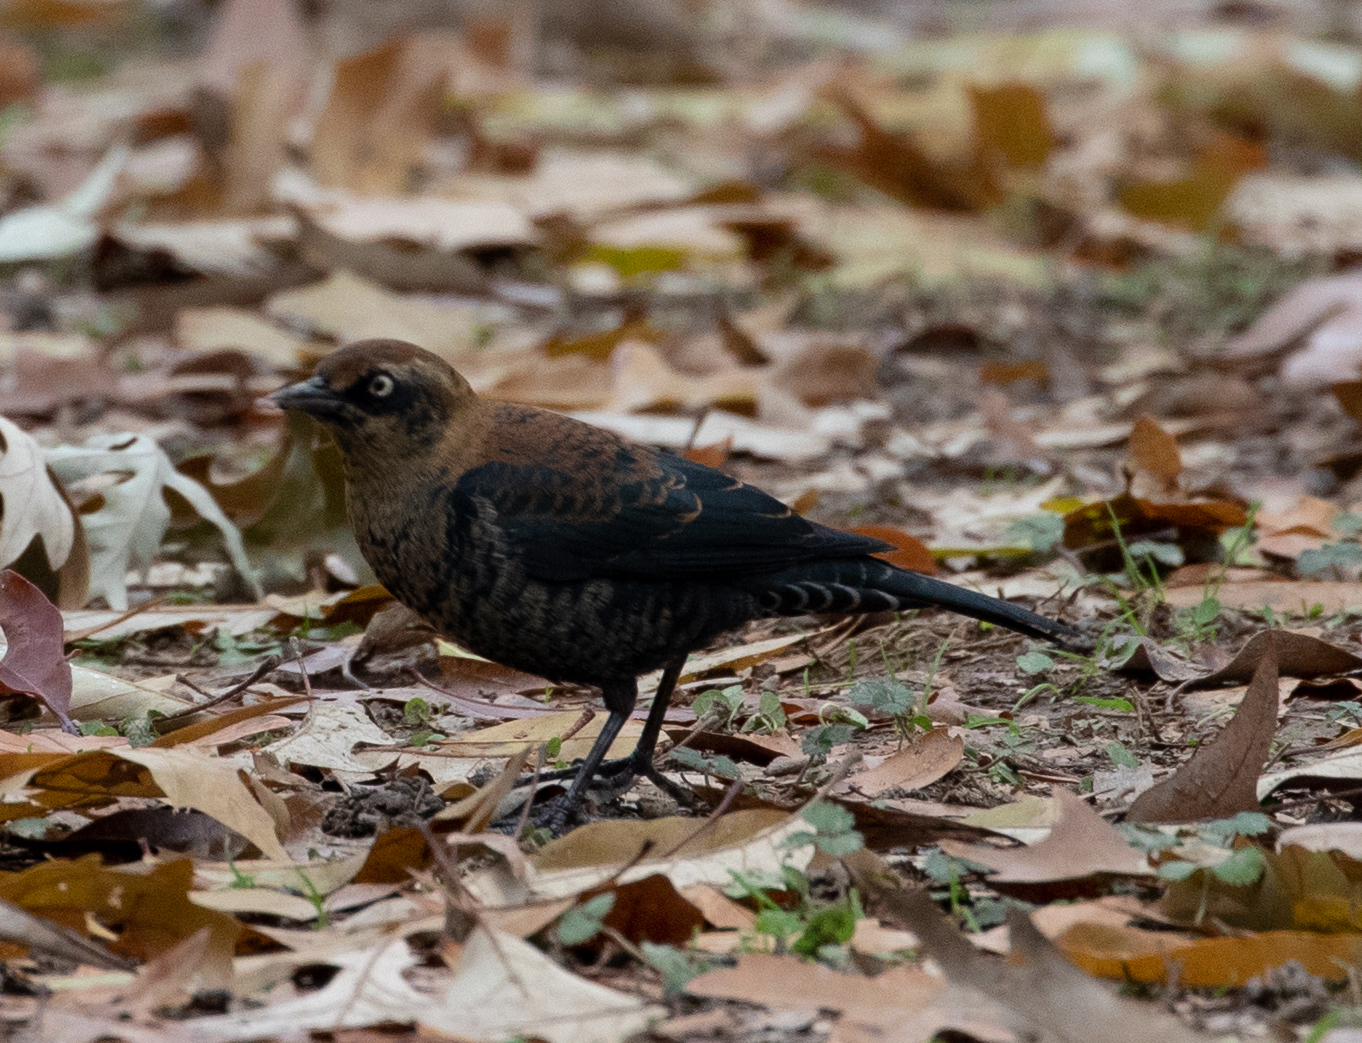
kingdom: Animalia
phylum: Chordata
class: Aves
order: Passeriformes
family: Icteridae
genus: Euphagus
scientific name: Euphagus carolinus
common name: Rusty blackbird
